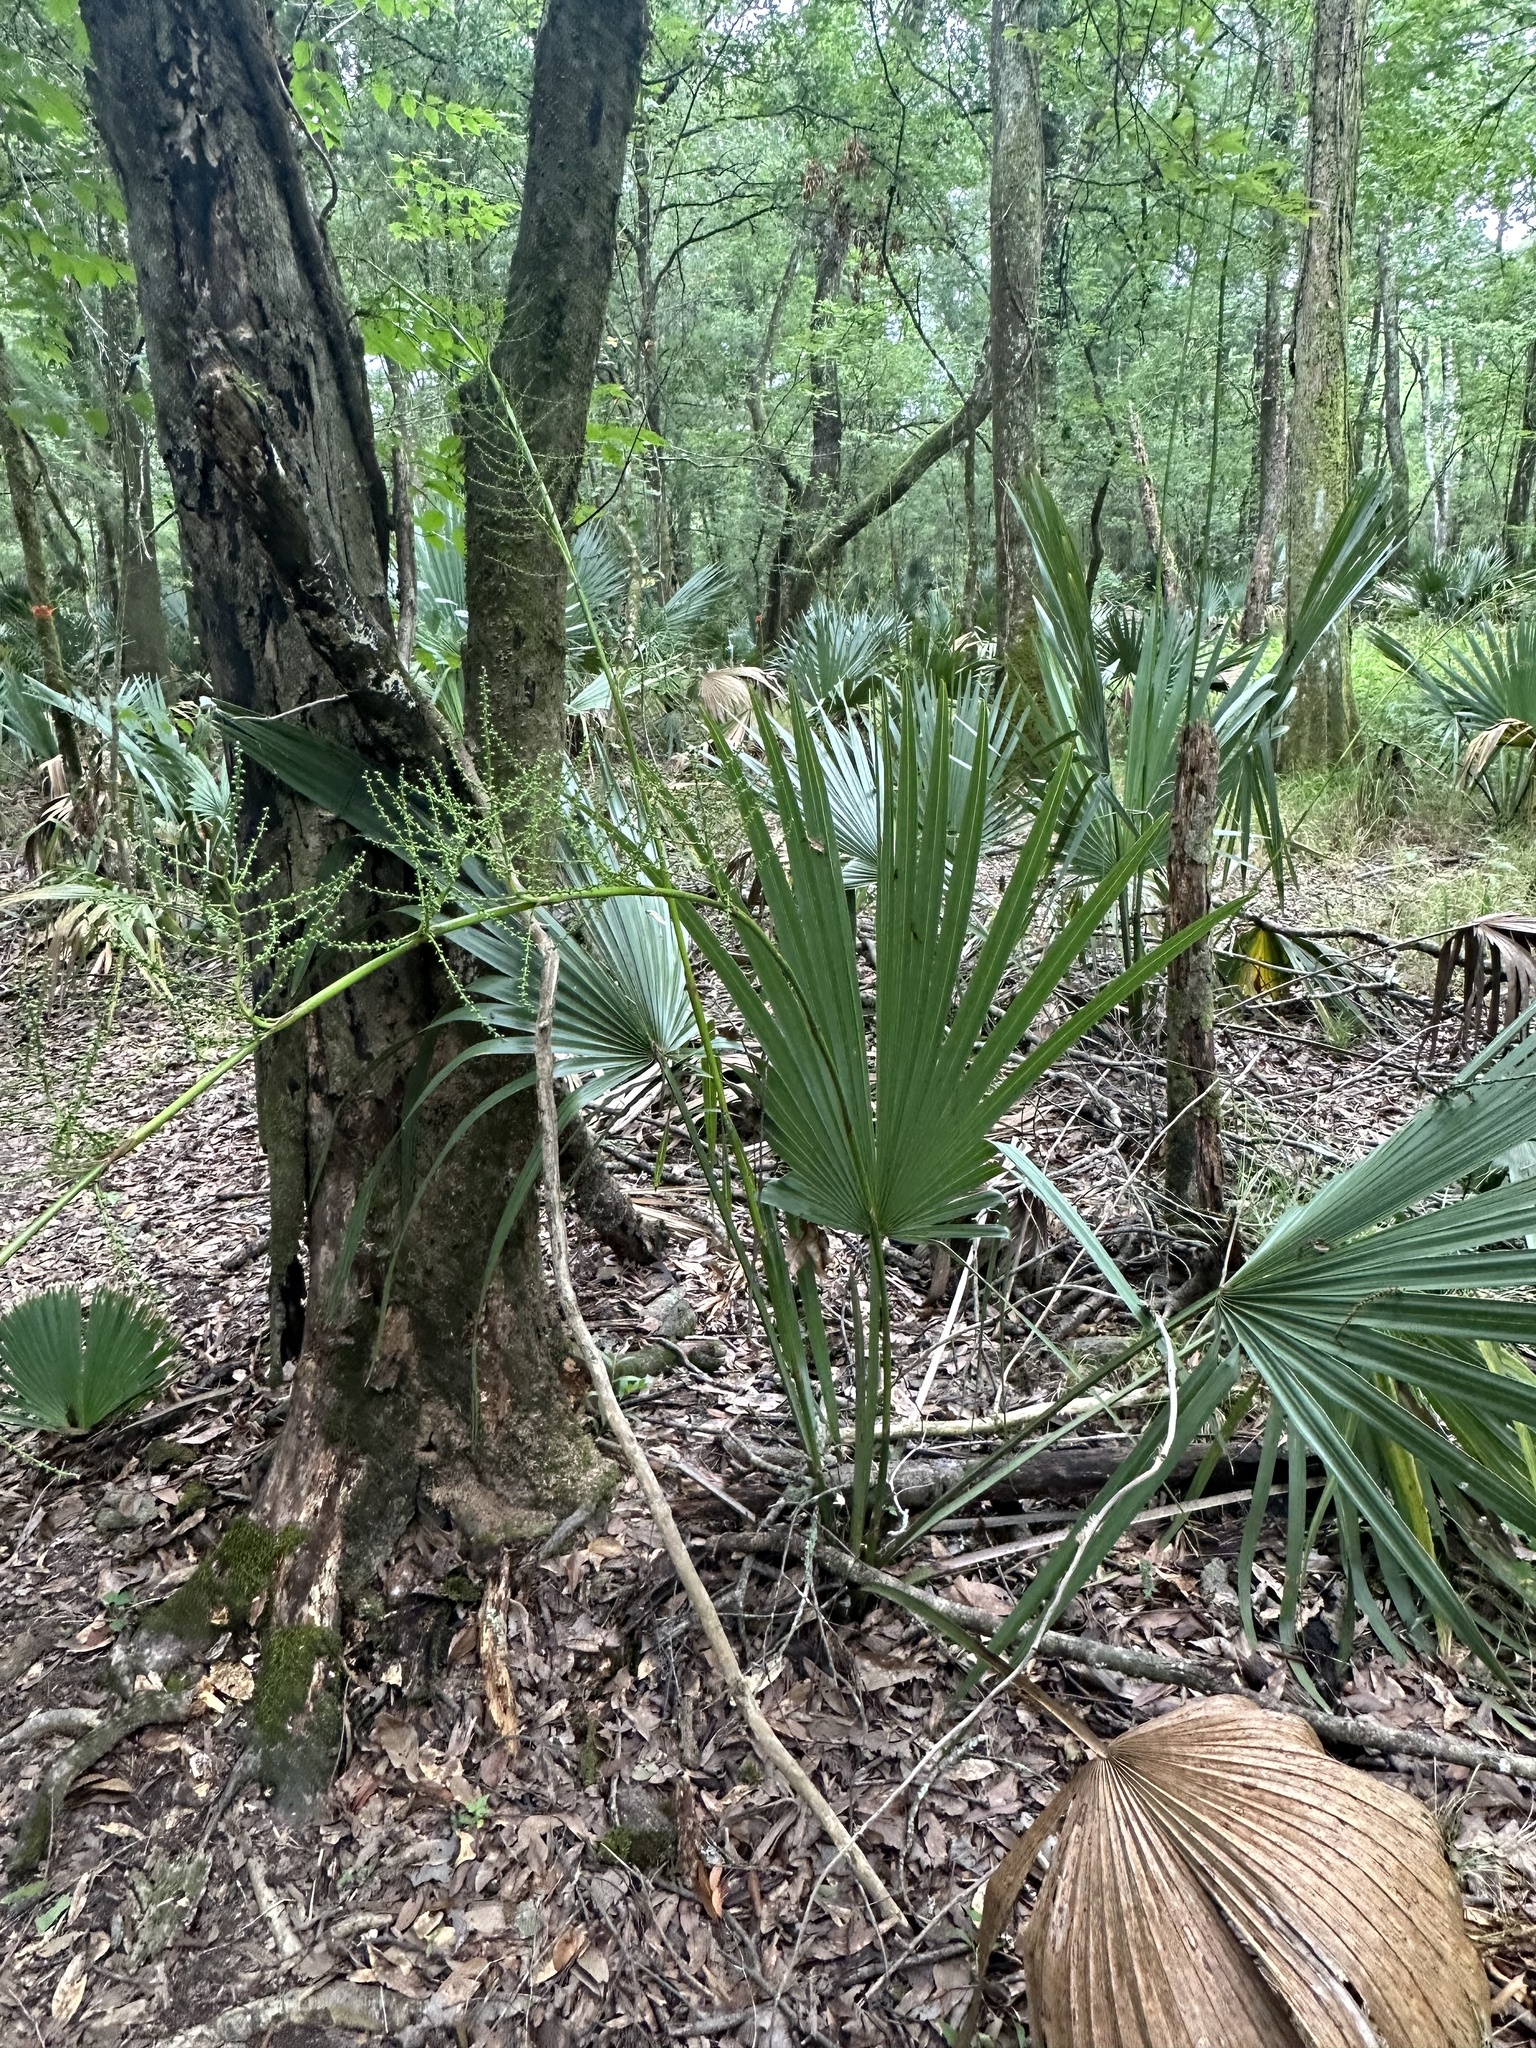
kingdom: Plantae
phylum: Tracheophyta
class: Liliopsida
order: Arecales
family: Arecaceae
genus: Sabal
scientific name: Sabal minor
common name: Dwarf palmetto
